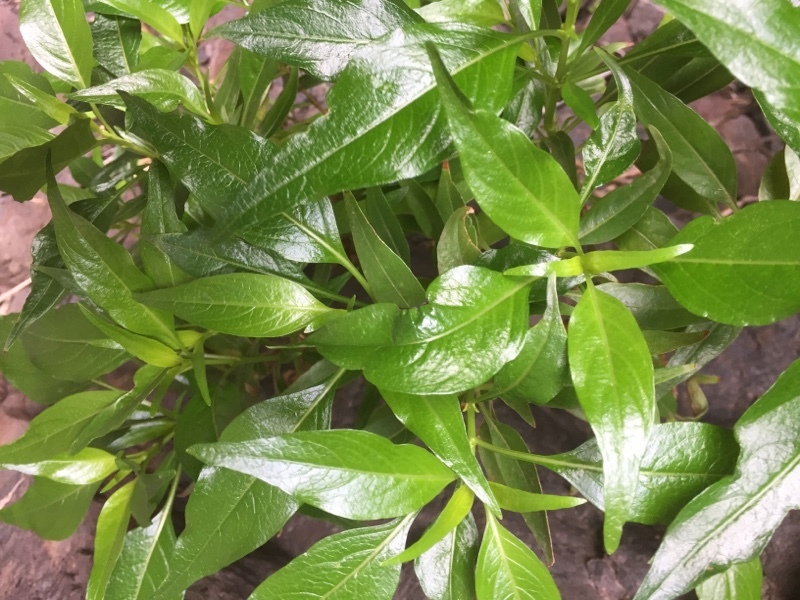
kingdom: Plantae
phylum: Tracheophyta
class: Magnoliopsida
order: Gentianales
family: Rubiaceae
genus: Phyllis
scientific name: Phyllis nobla
